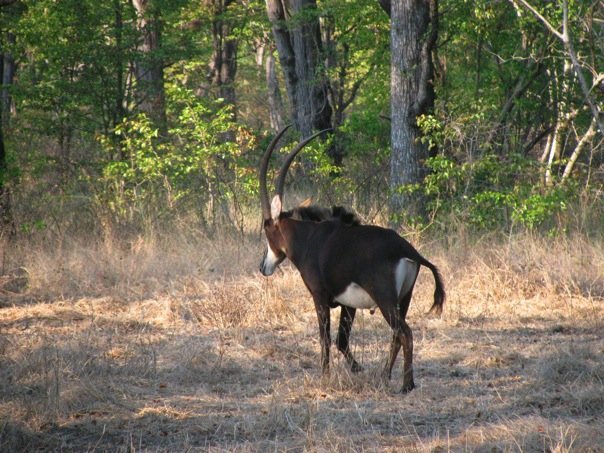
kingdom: Animalia
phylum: Chordata
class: Mammalia
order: Artiodactyla
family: Bovidae
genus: Hippotragus
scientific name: Hippotragus niger
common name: Sable antelope
